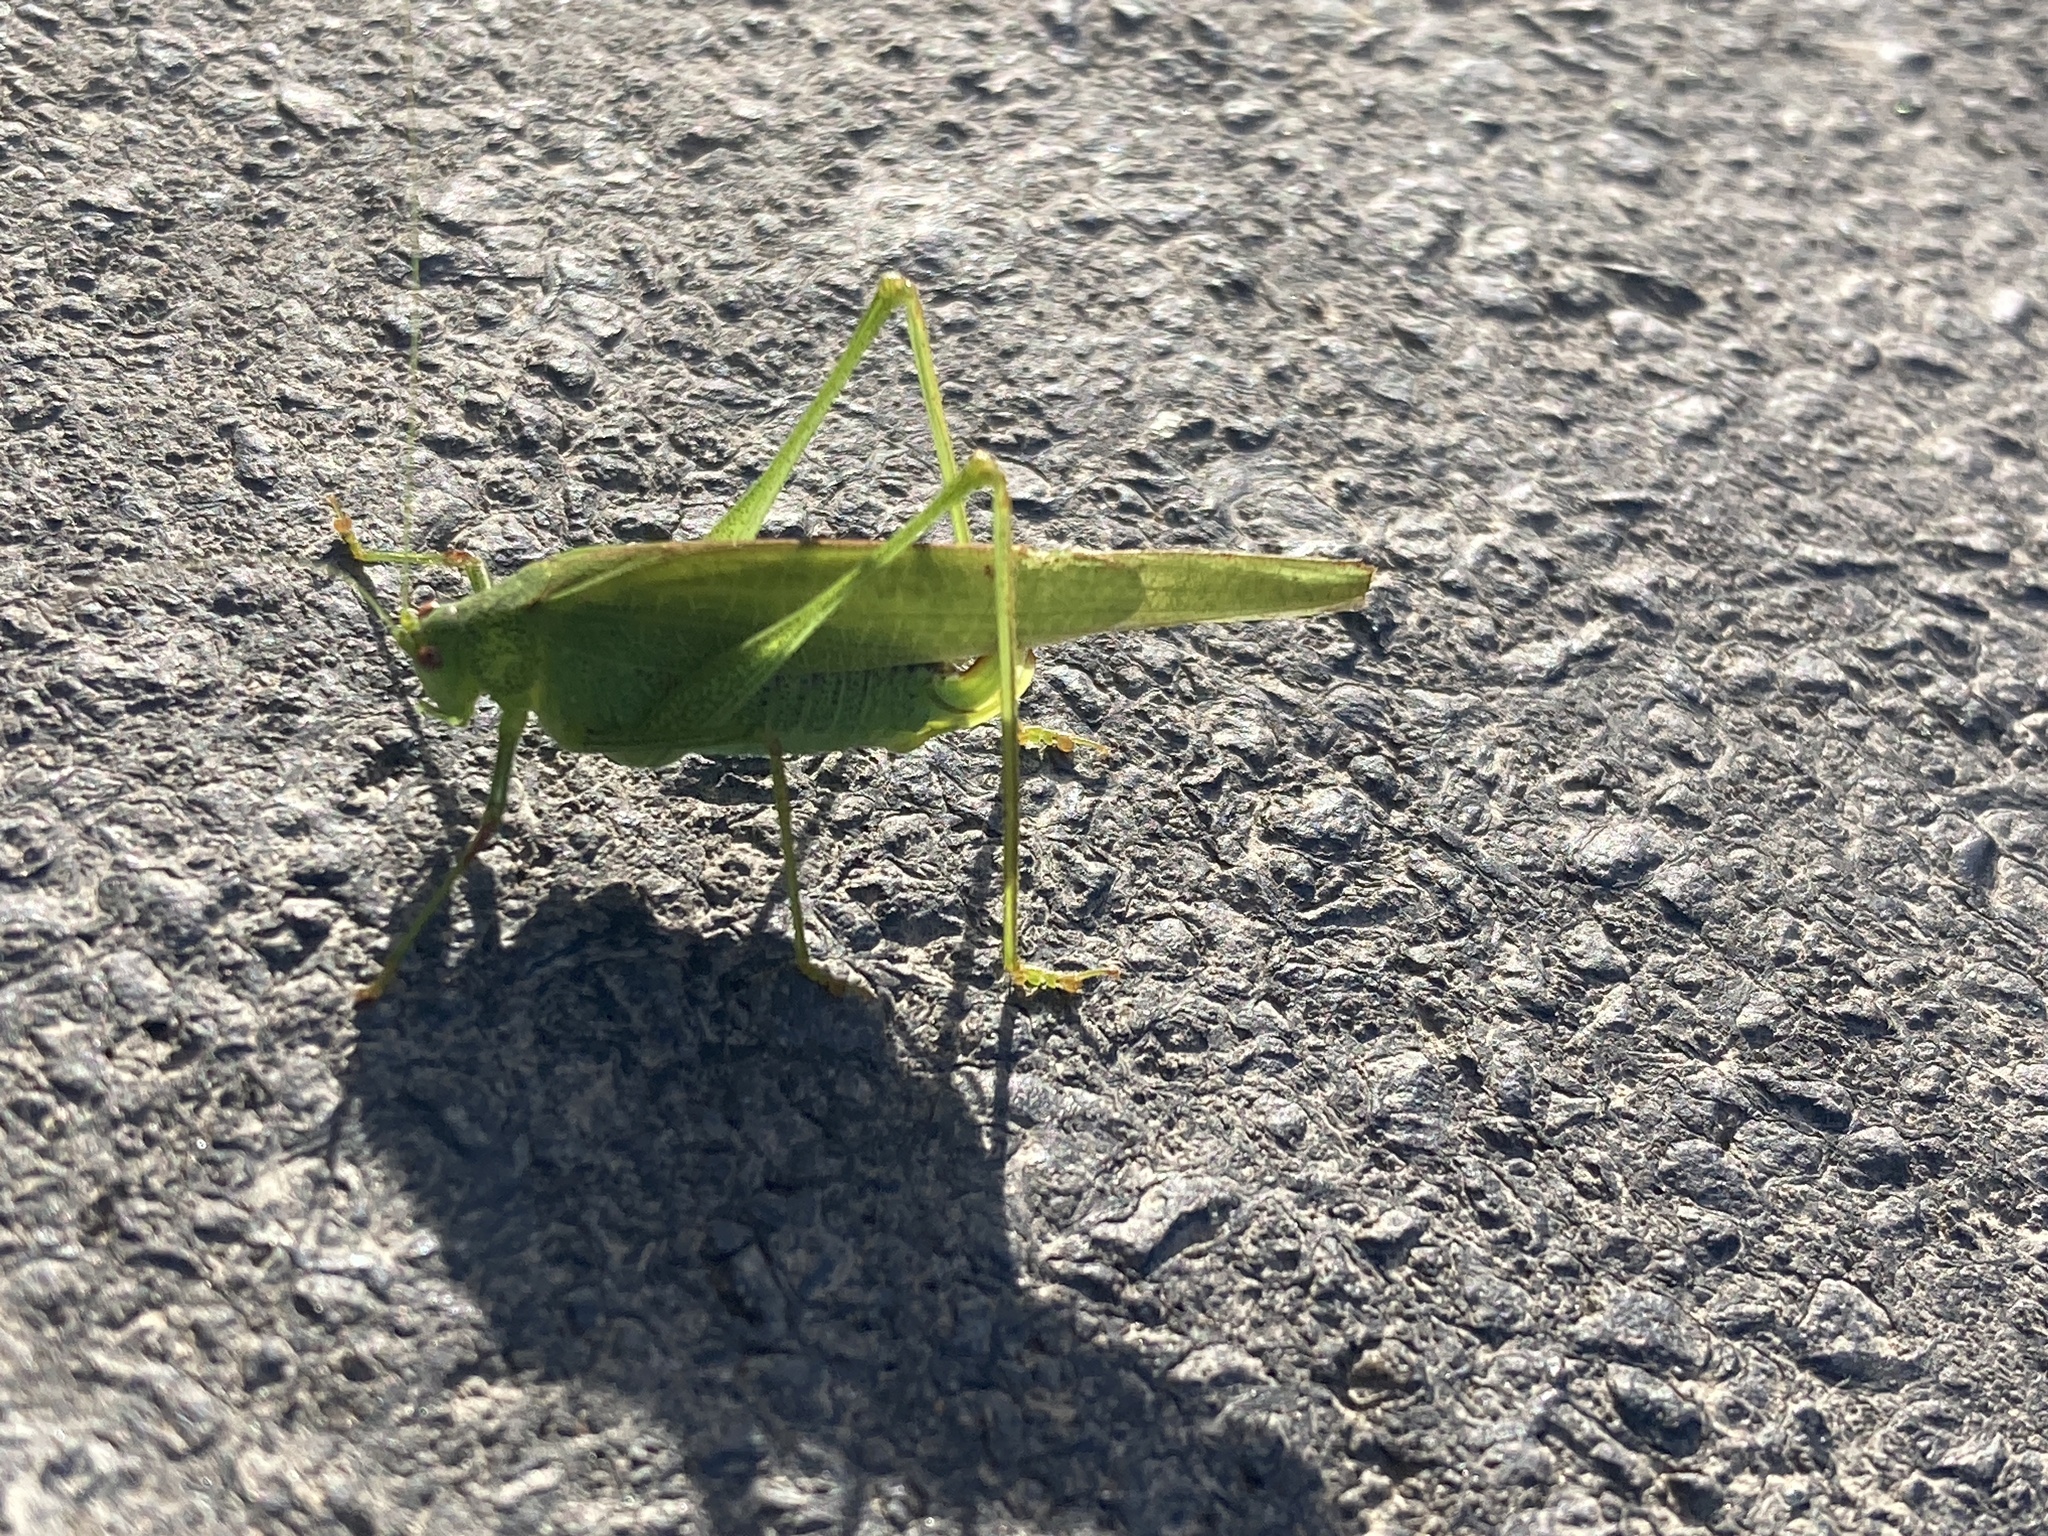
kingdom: Animalia
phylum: Arthropoda
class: Insecta
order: Orthoptera
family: Tettigoniidae
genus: Phaneroptera
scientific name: Phaneroptera nana
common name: Southern sickle bush-cricket
